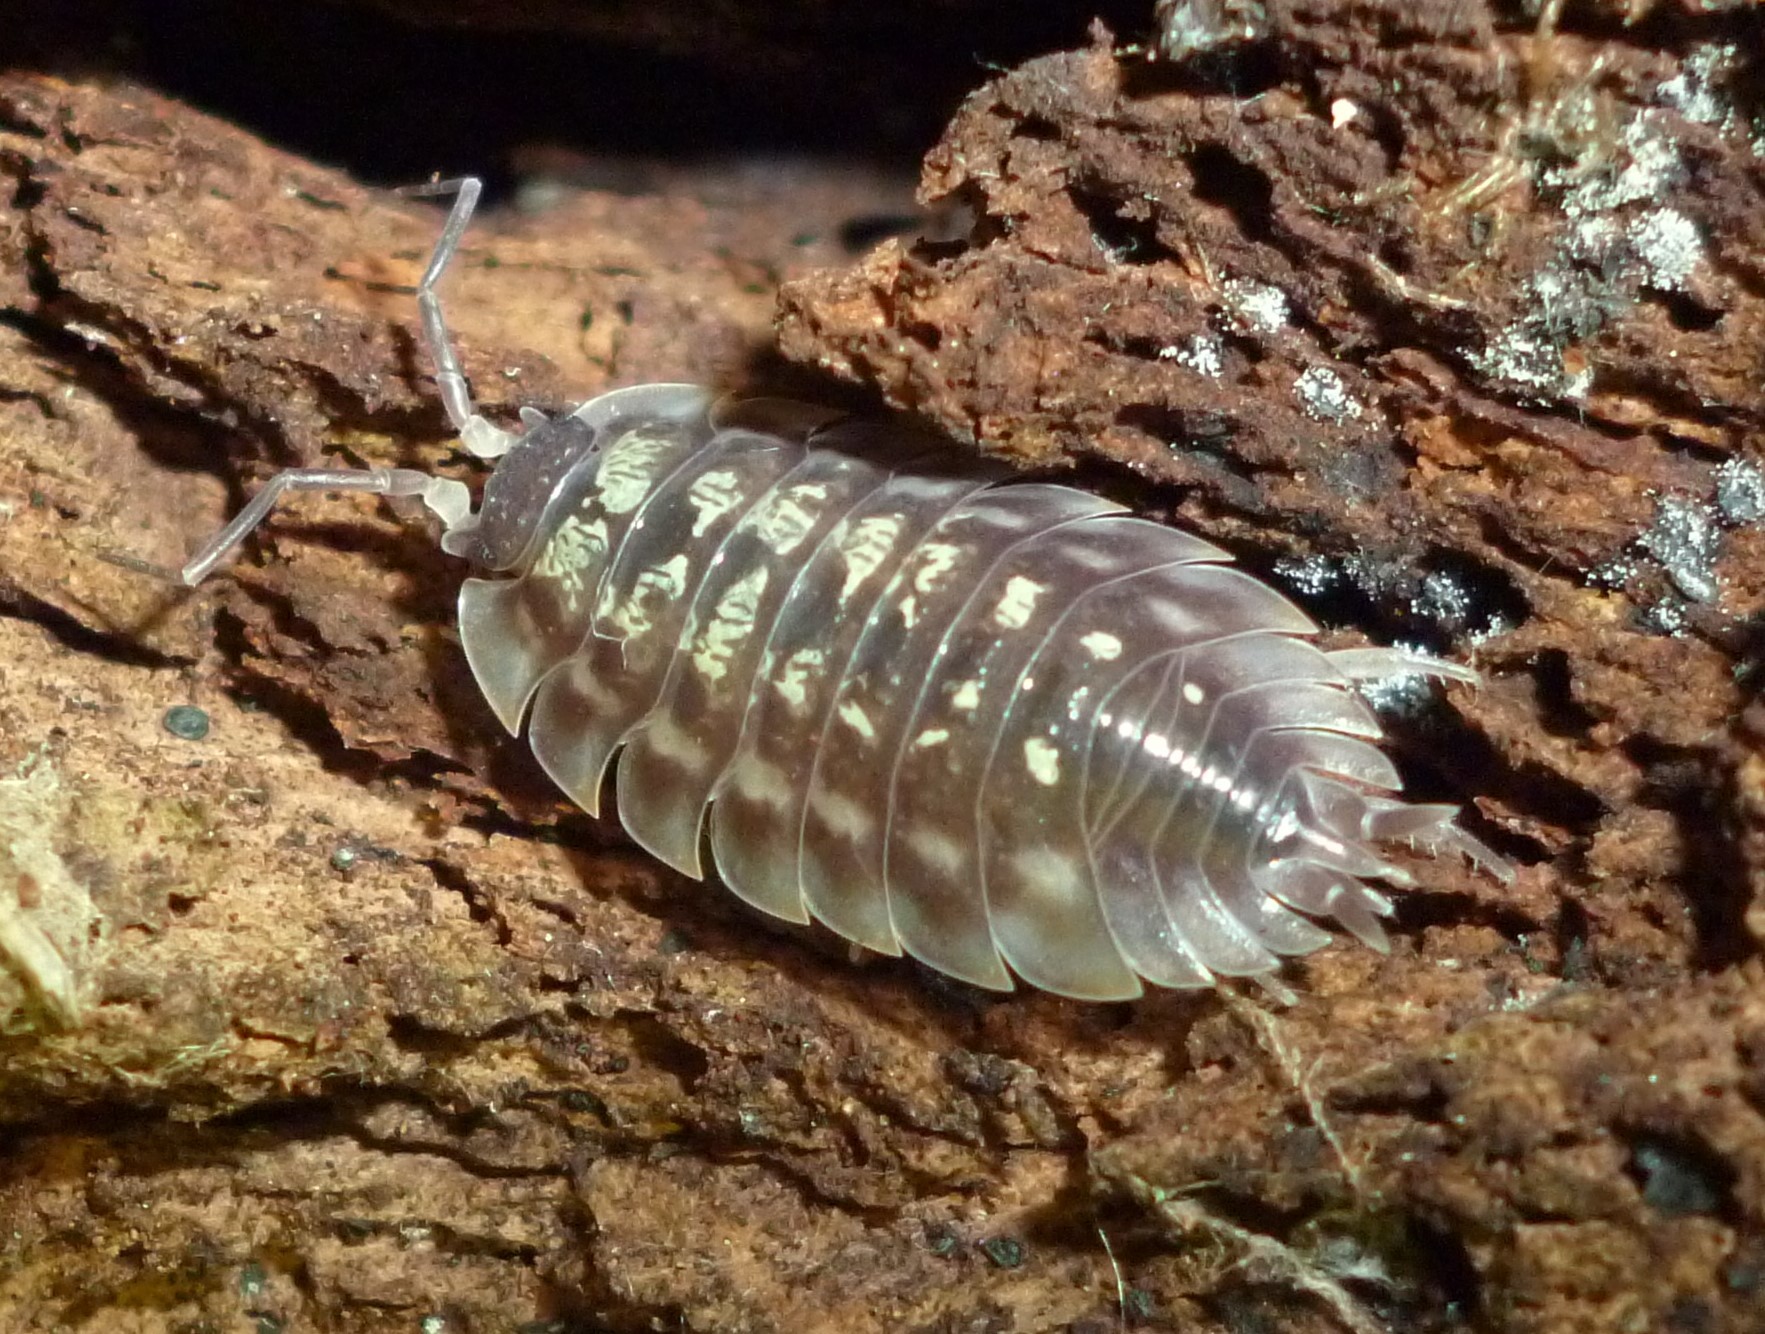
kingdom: Animalia
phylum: Arthropoda
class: Malacostraca
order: Isopoda
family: Oniscidae
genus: Oniscus
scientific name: Oniscus asellus
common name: Common shiny woodlouse
